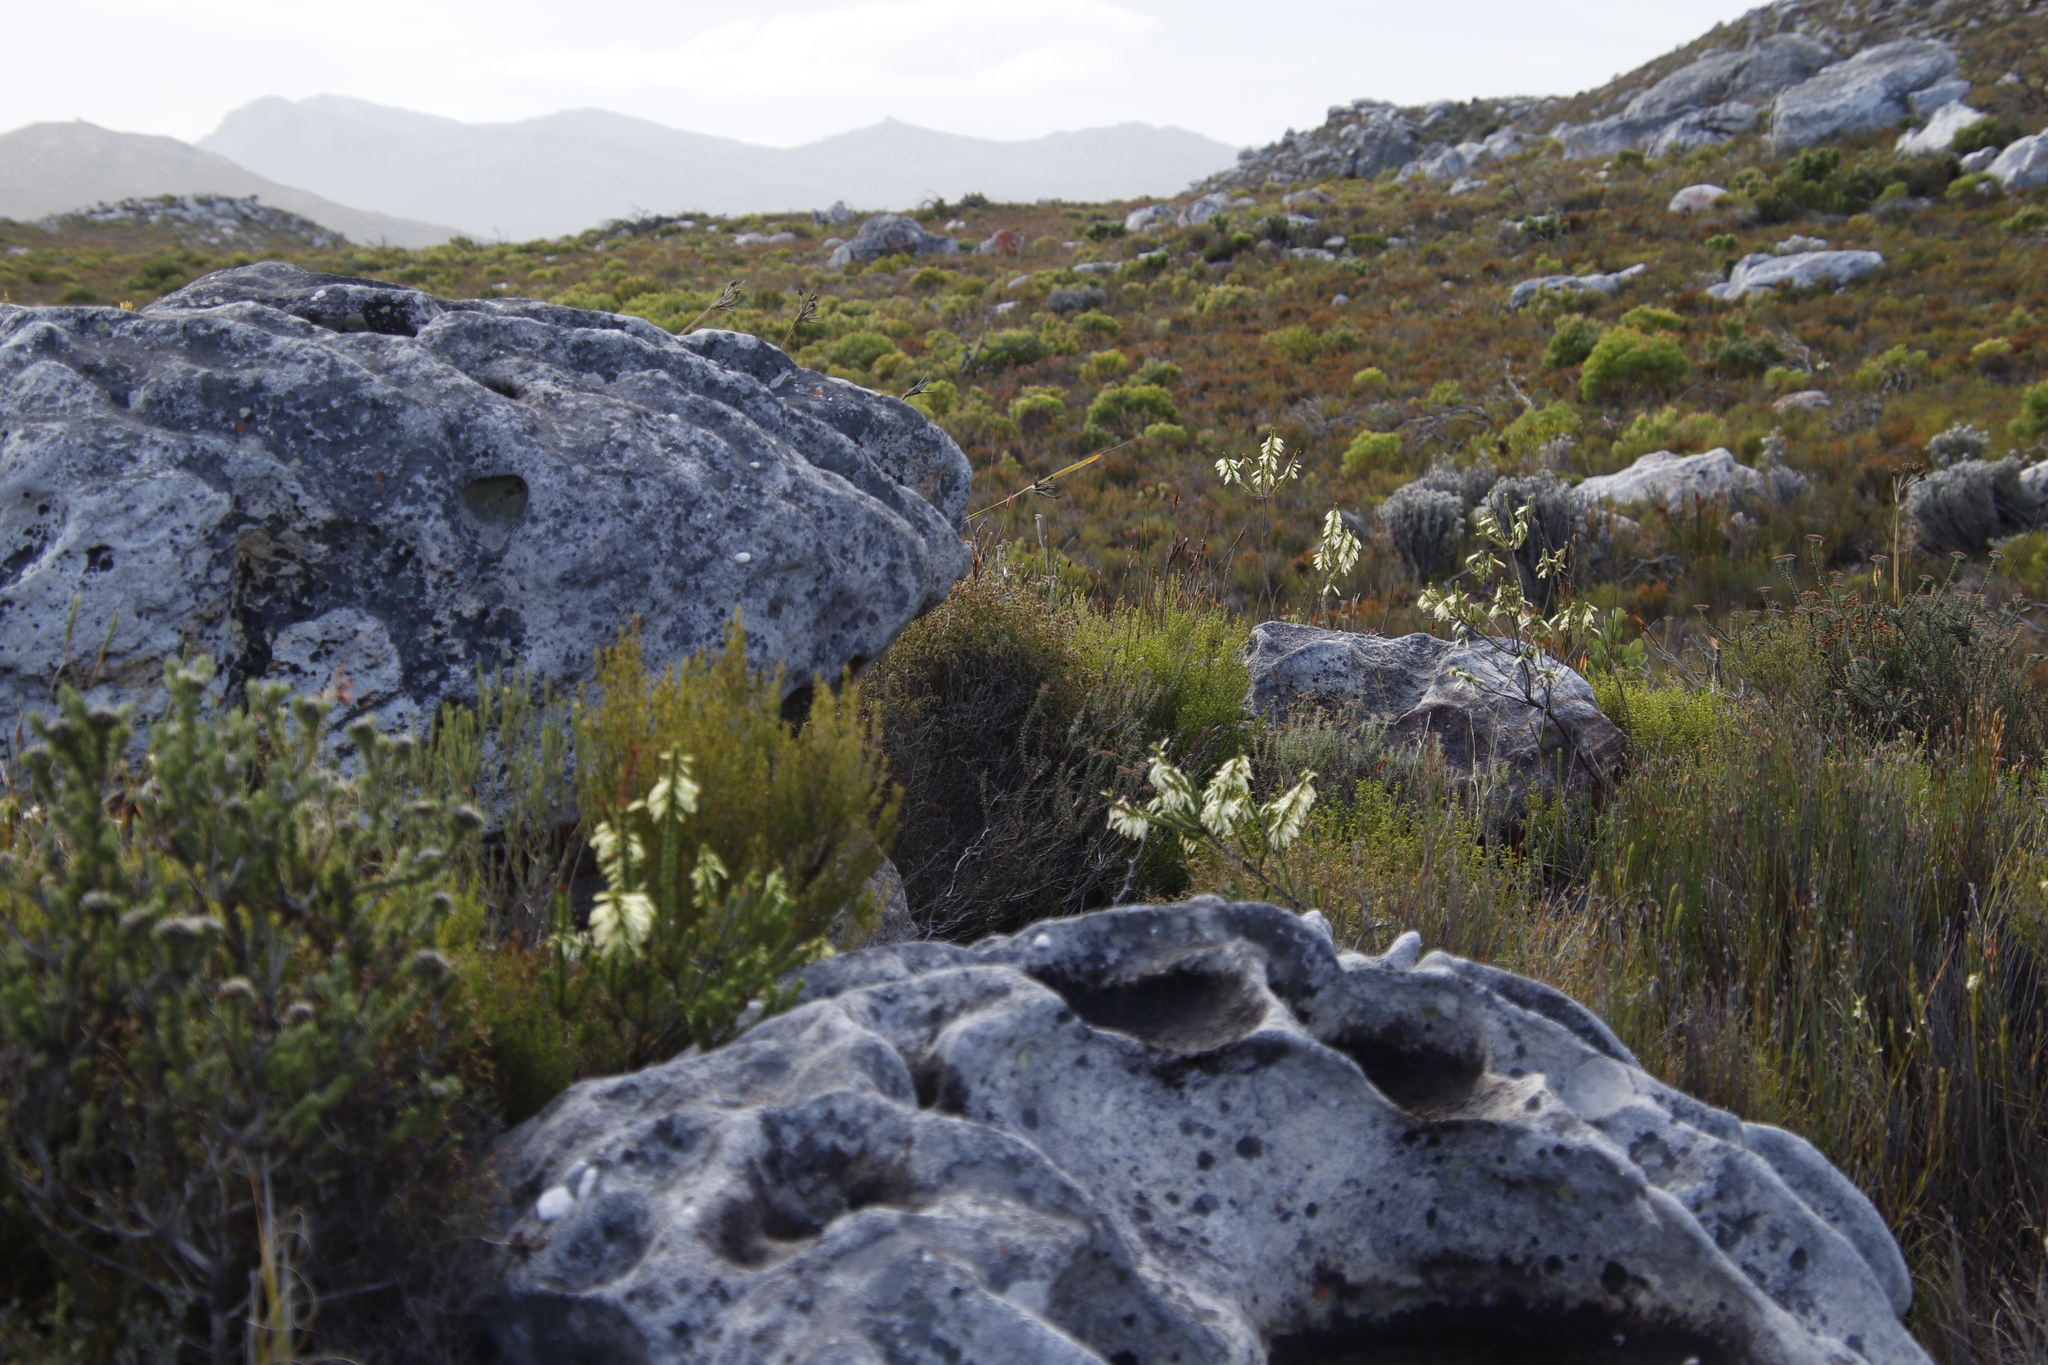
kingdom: Plantae
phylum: Tracheophyta
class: Magnoliopsida
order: Ericales
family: Ericaceae
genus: Erica
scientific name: Erica mammosa
